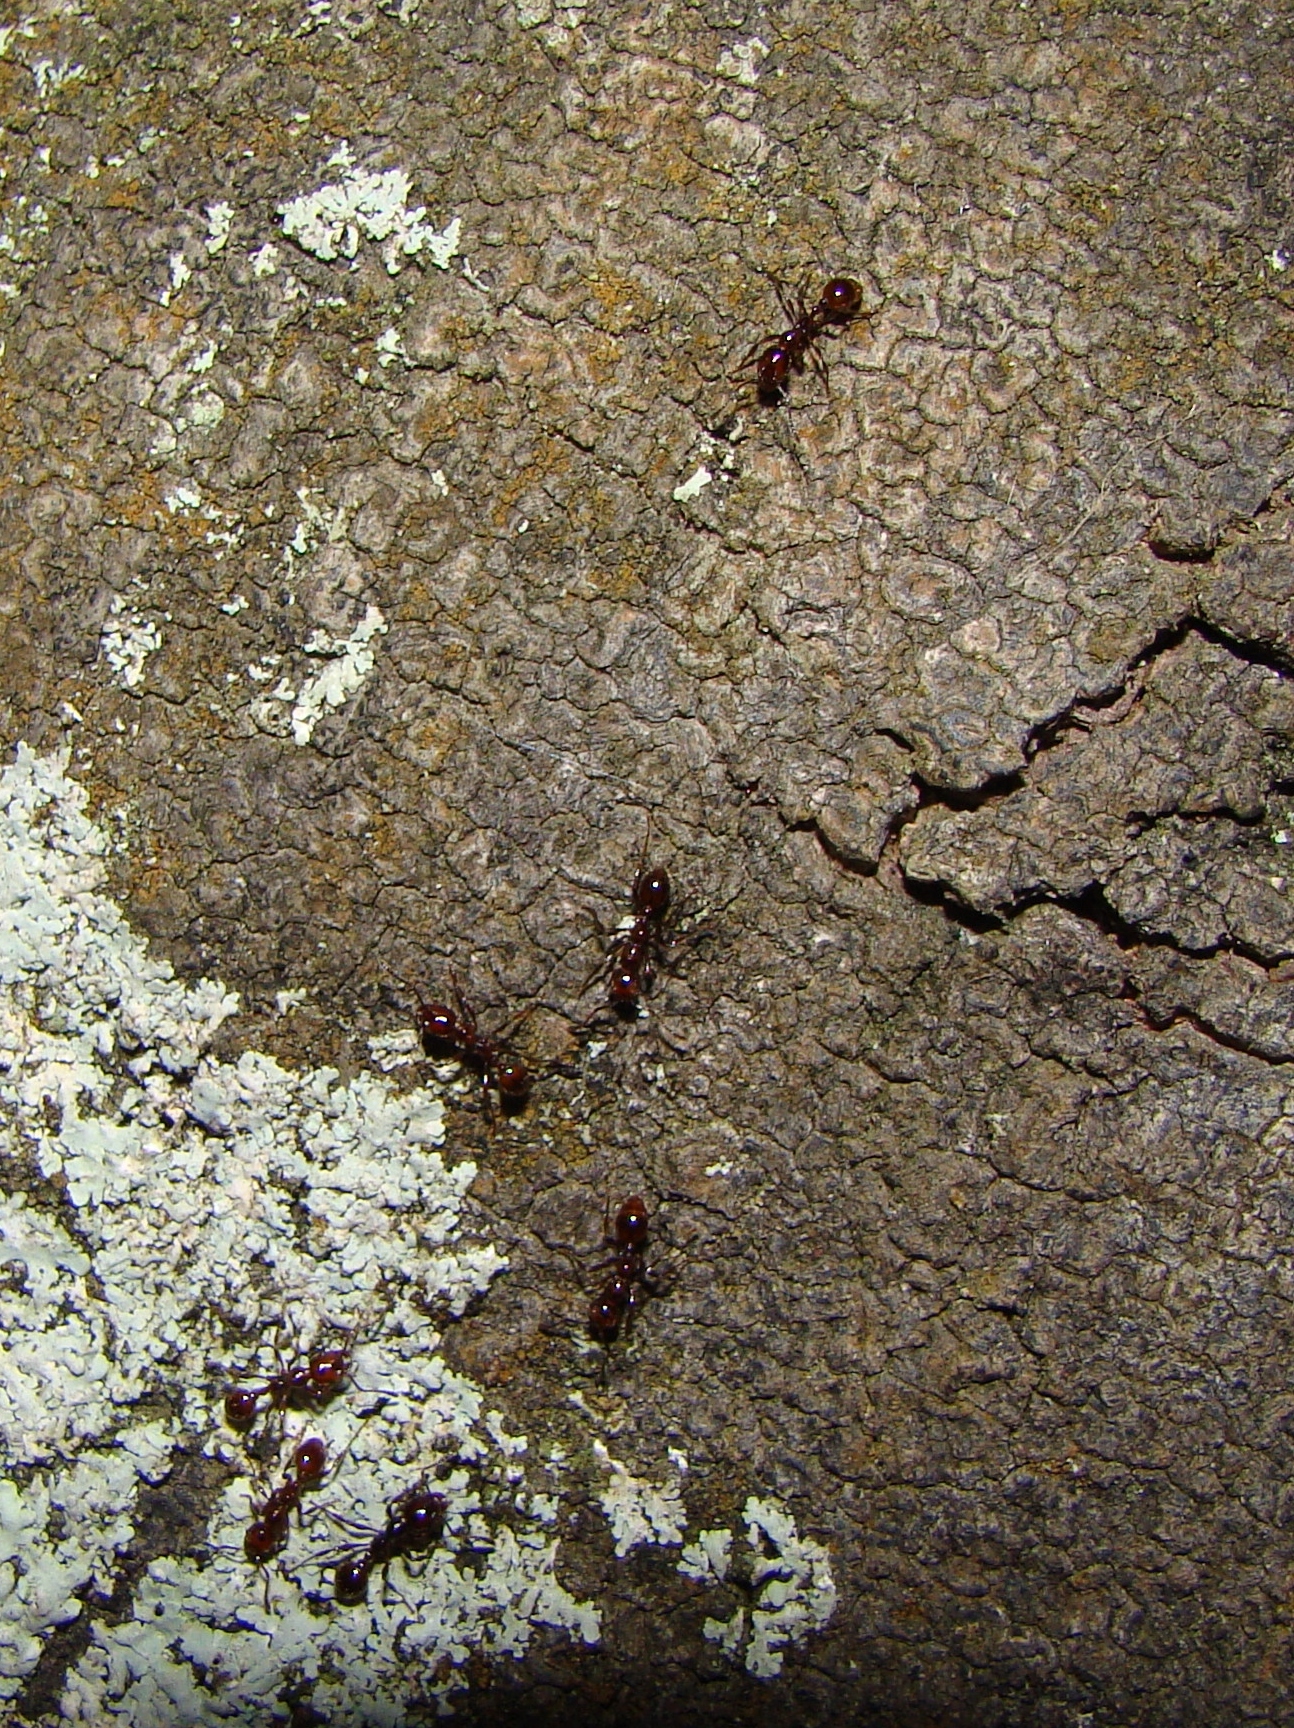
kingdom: Animalia
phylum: Arthropoda
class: Insecta
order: Hymenoptera
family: Formicidae
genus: Huberia
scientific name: Huberia striata
